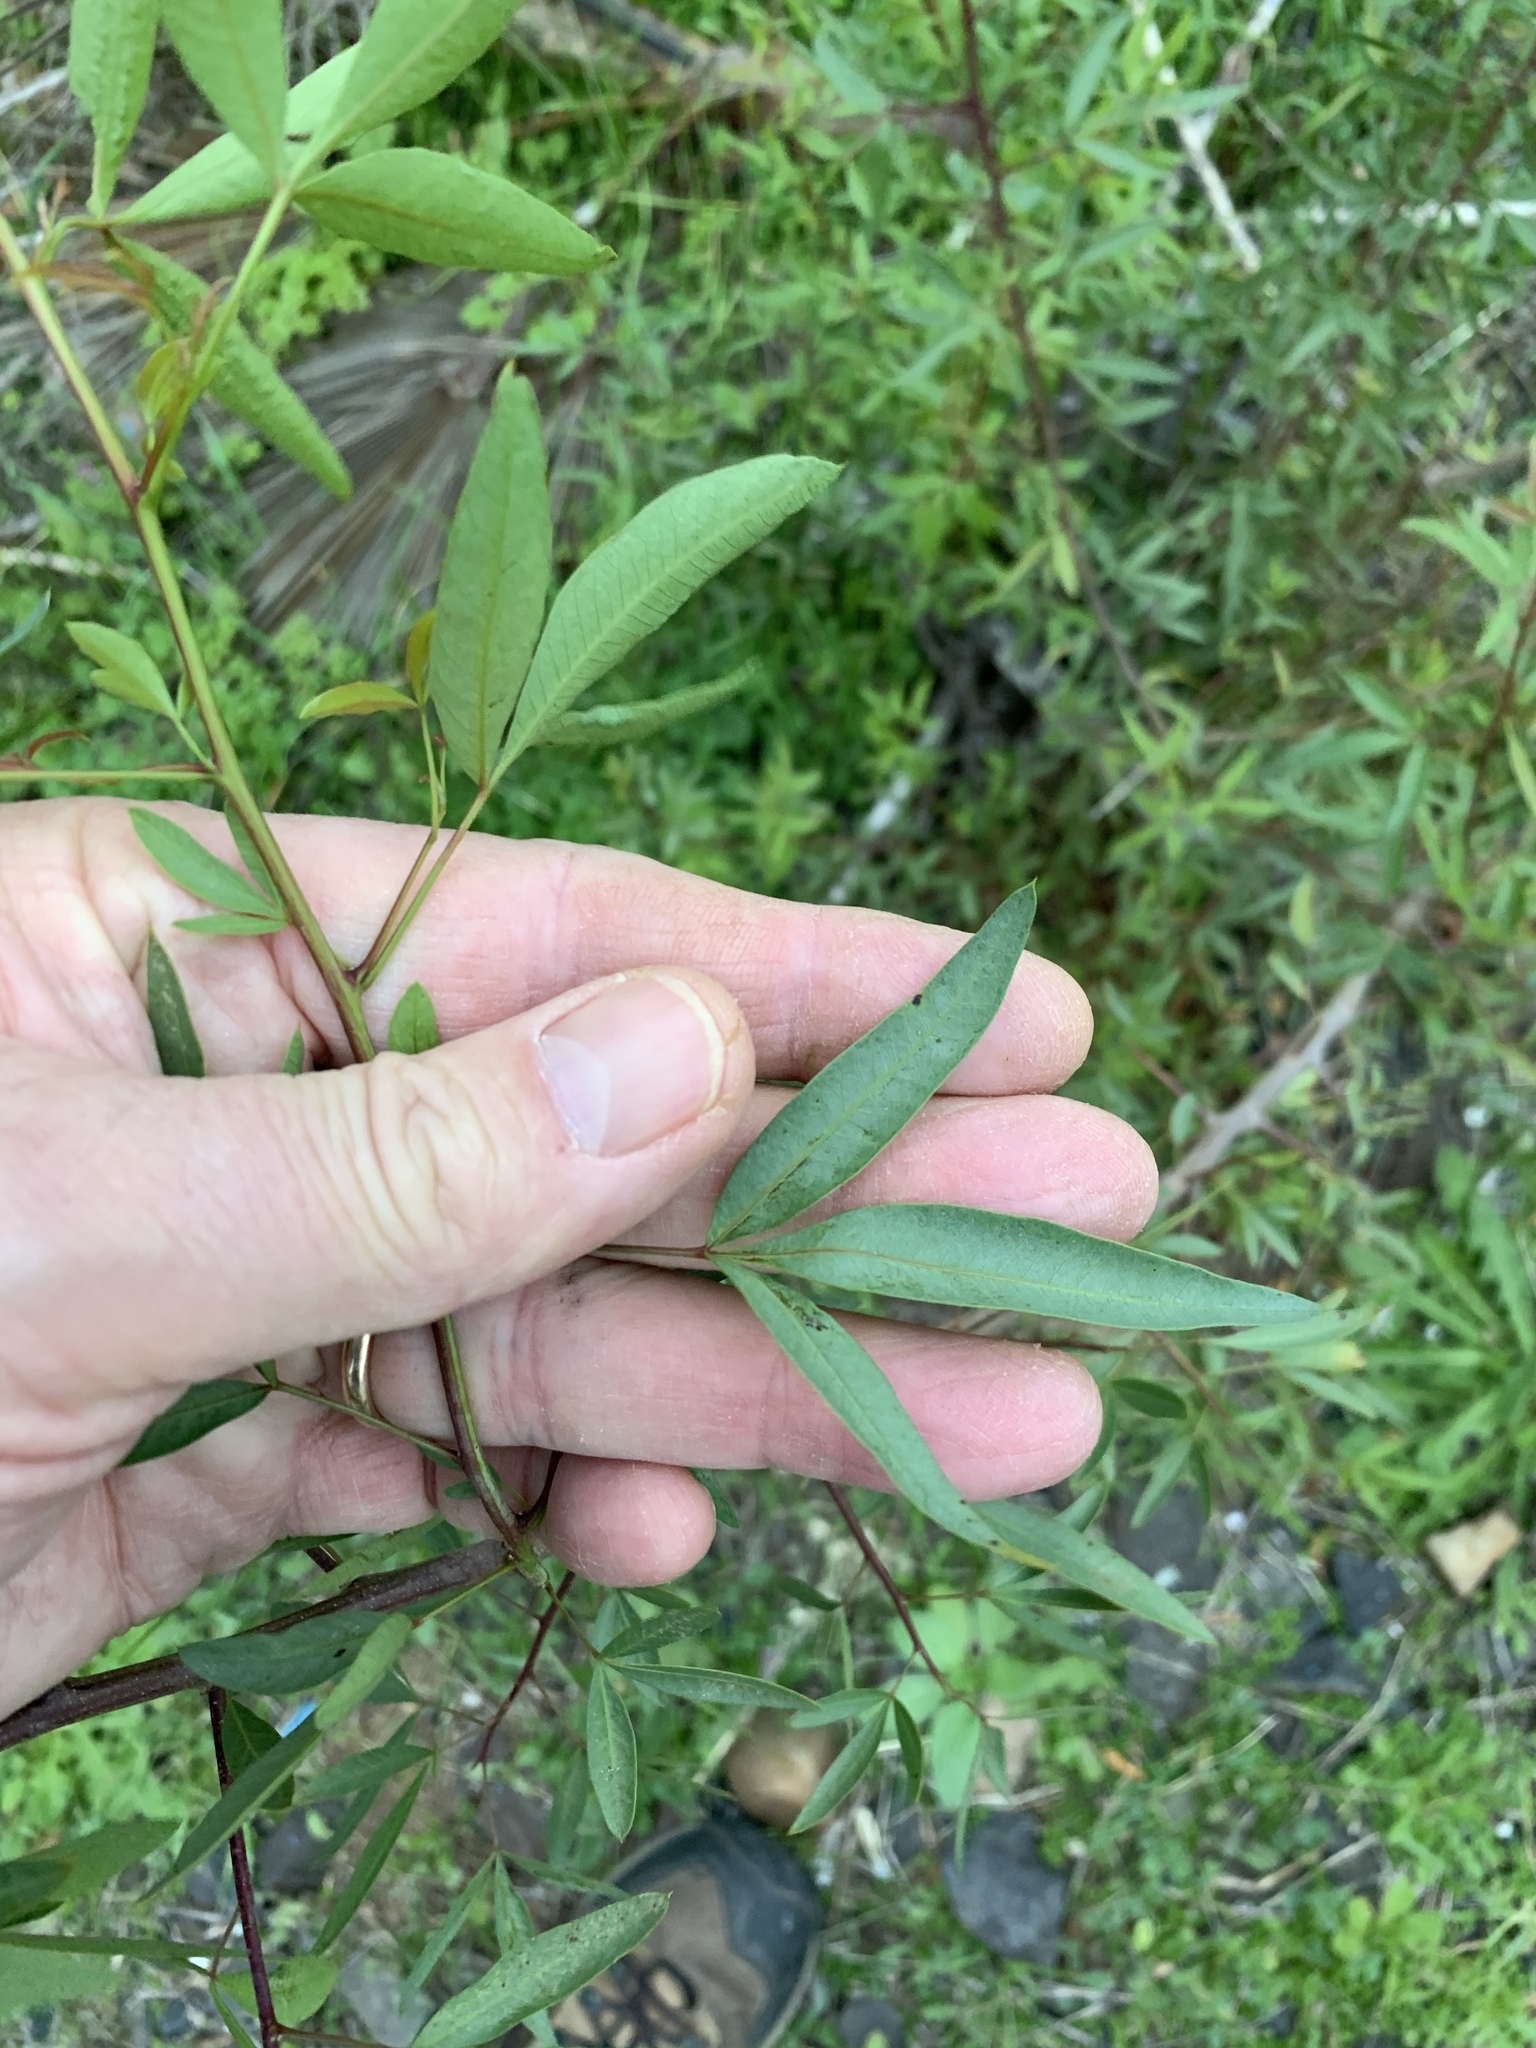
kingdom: Plantae
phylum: Tracheophyta
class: Magnoliopsida
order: Sapindales
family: Anacardiaceae
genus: Searsia
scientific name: Searsia pendulina
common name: White karee
